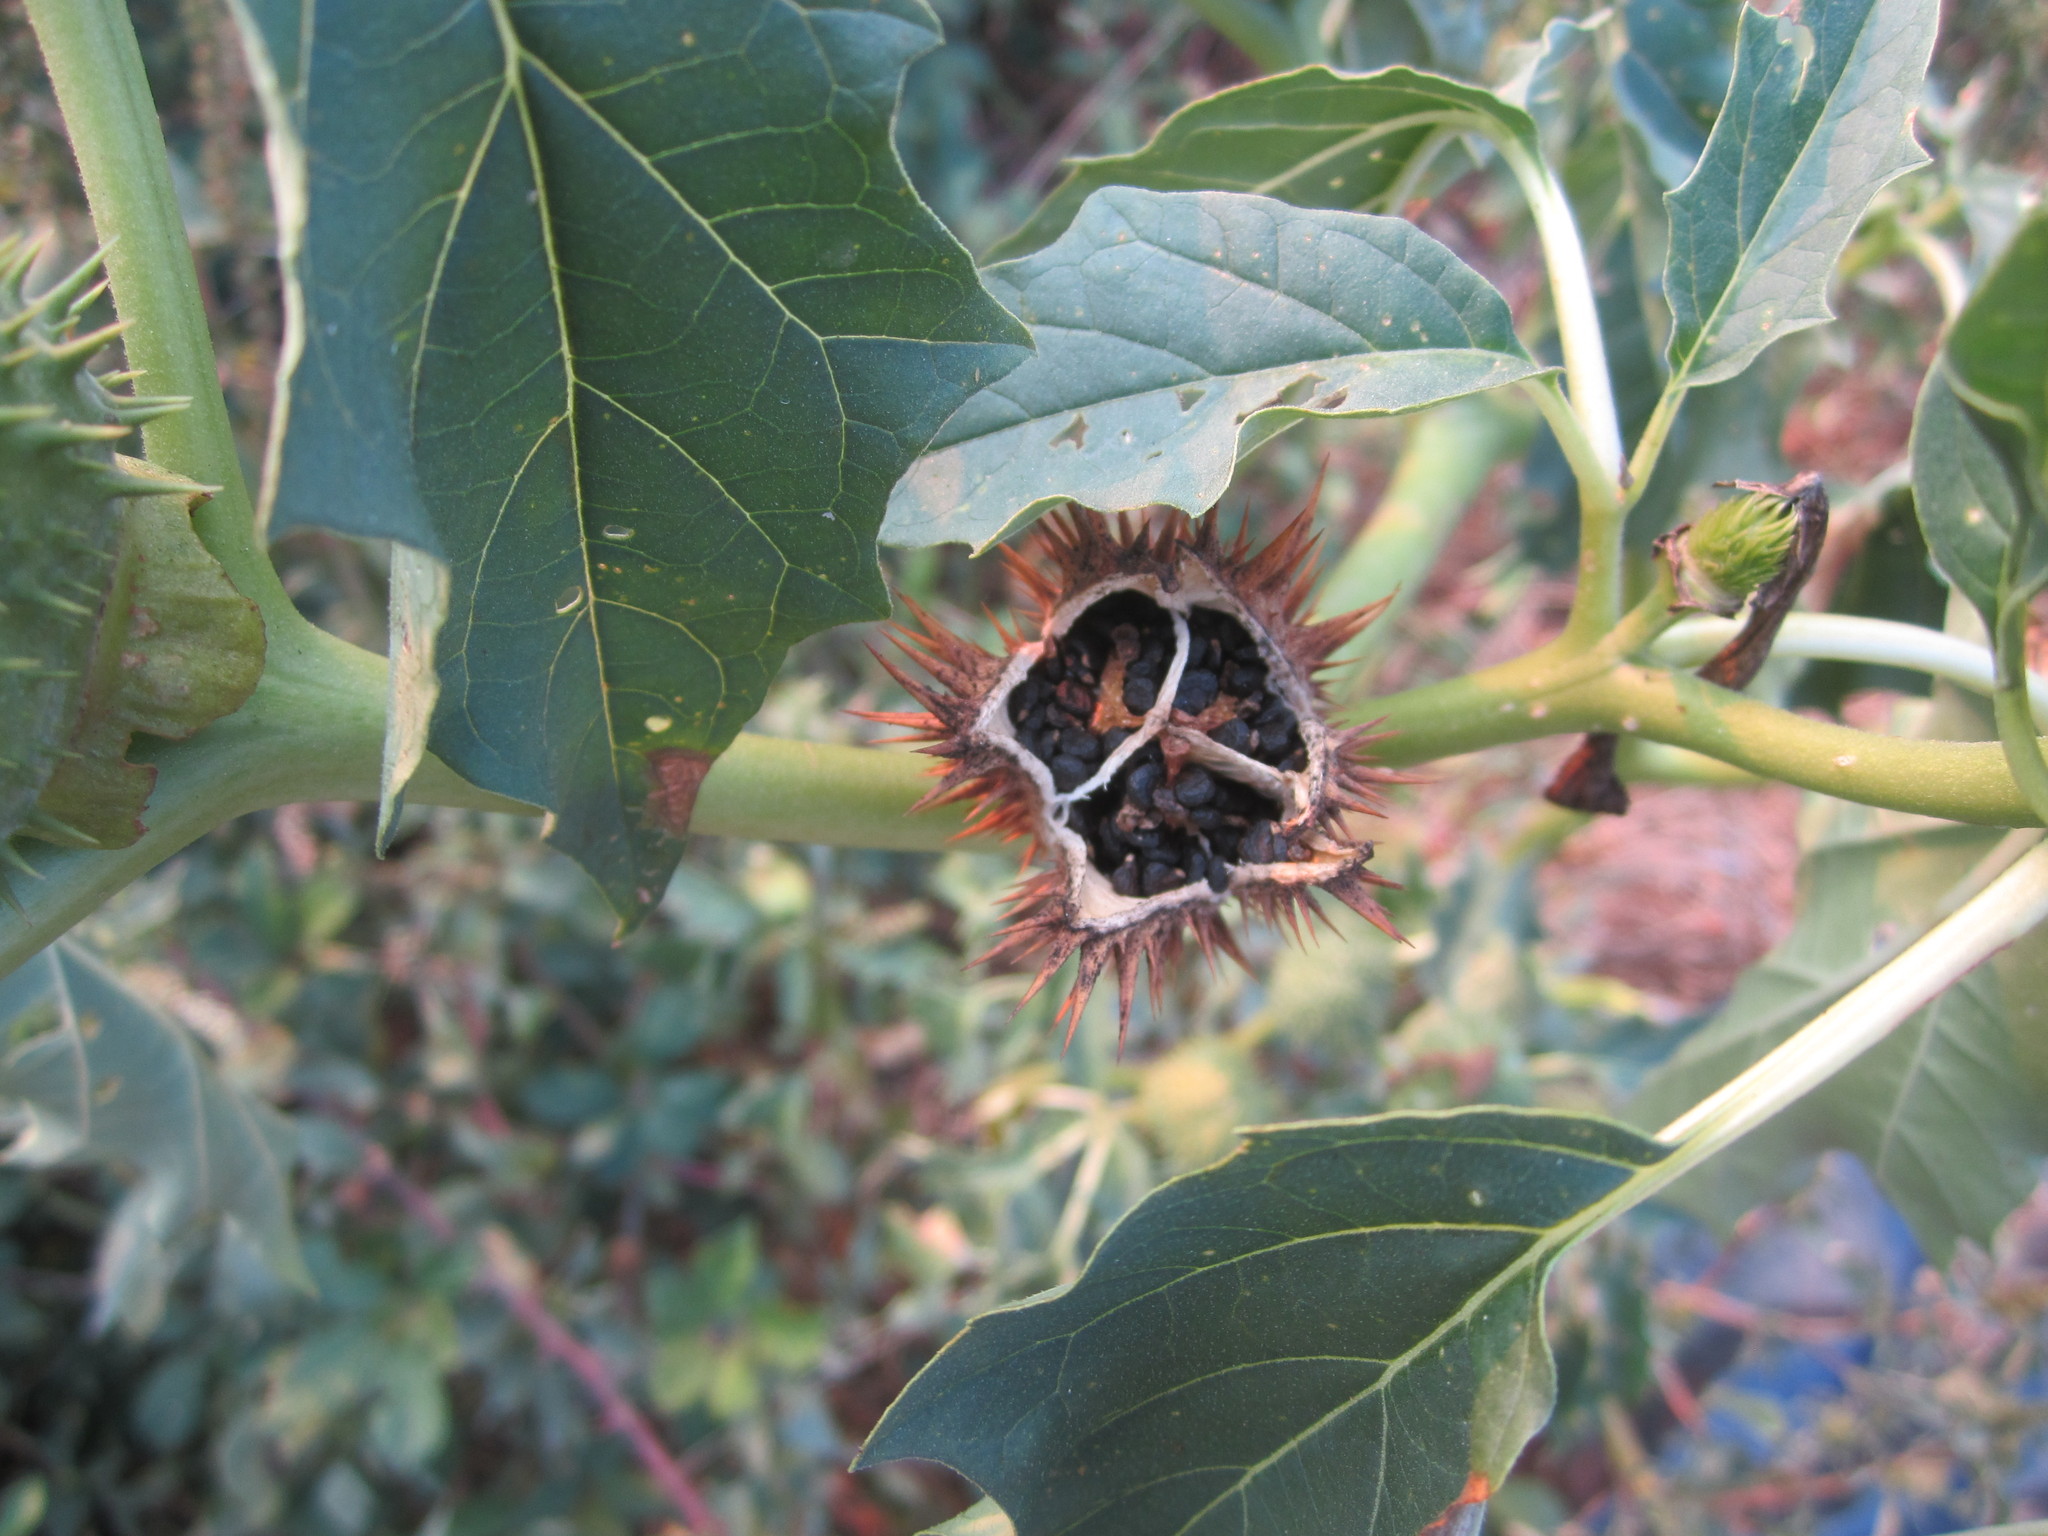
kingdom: Plantae
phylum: Tracheophyta
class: Magnoliopsida
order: Solanales
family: Solanaceae
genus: Datura
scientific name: Datura stramonium
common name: Thorn-apple
